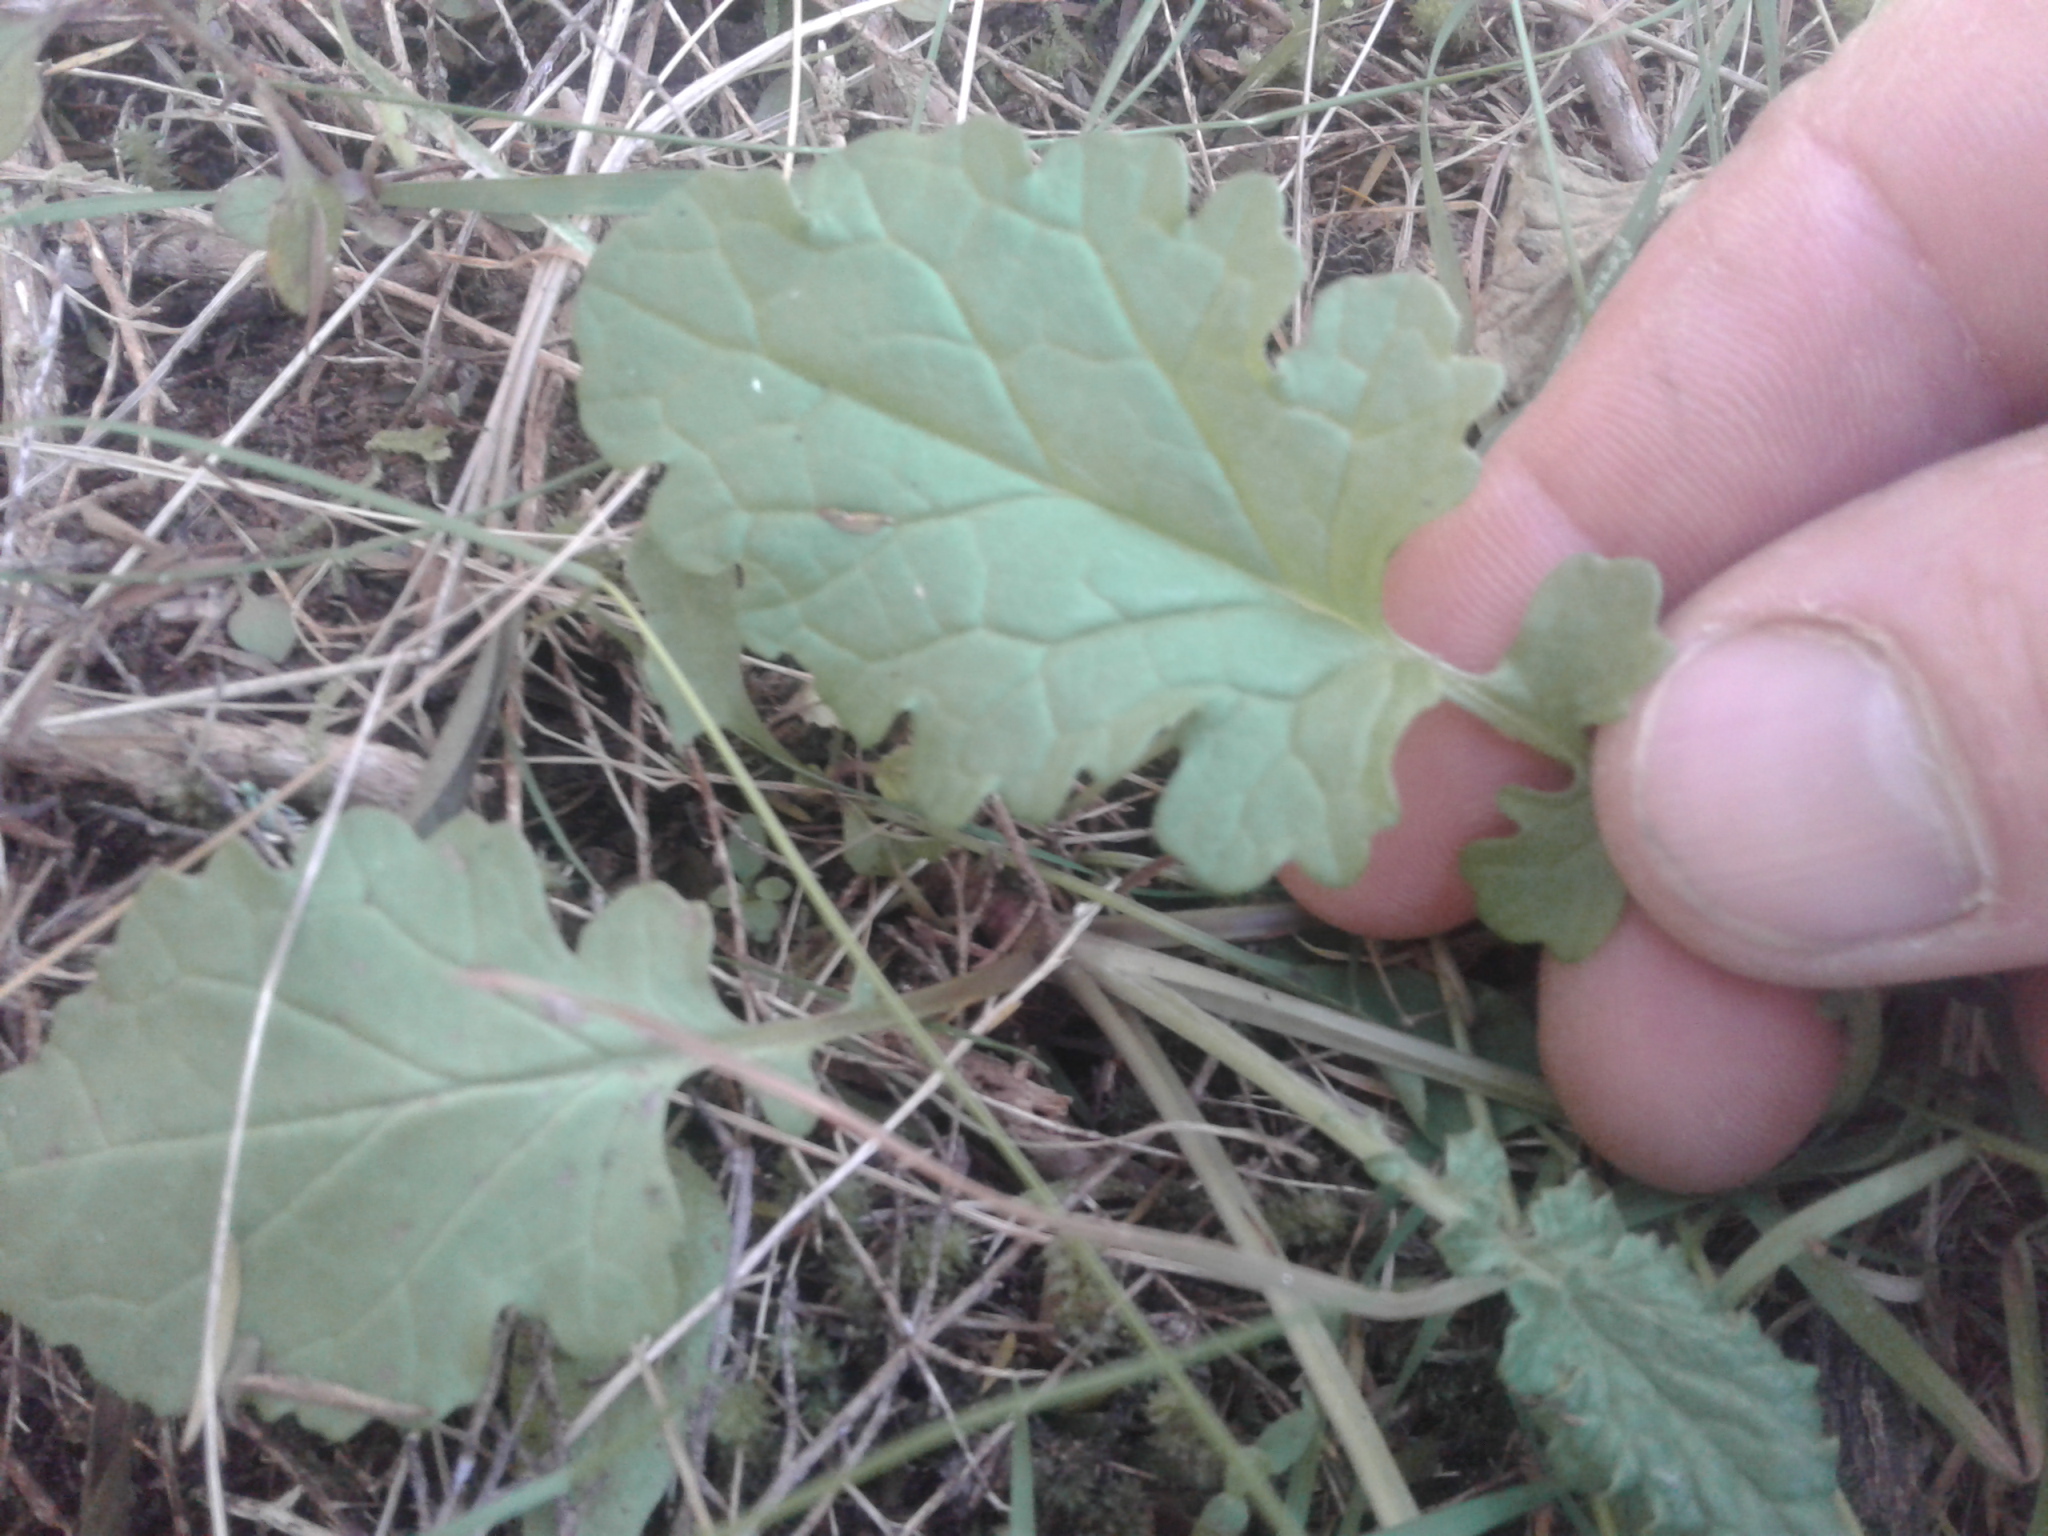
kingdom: Plantae
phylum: Tracheophyta
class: Magnoliopsida
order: Asterales
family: Asteraceae
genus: Jacobaea
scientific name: Jacobaea vulgaris
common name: Stinking willie
